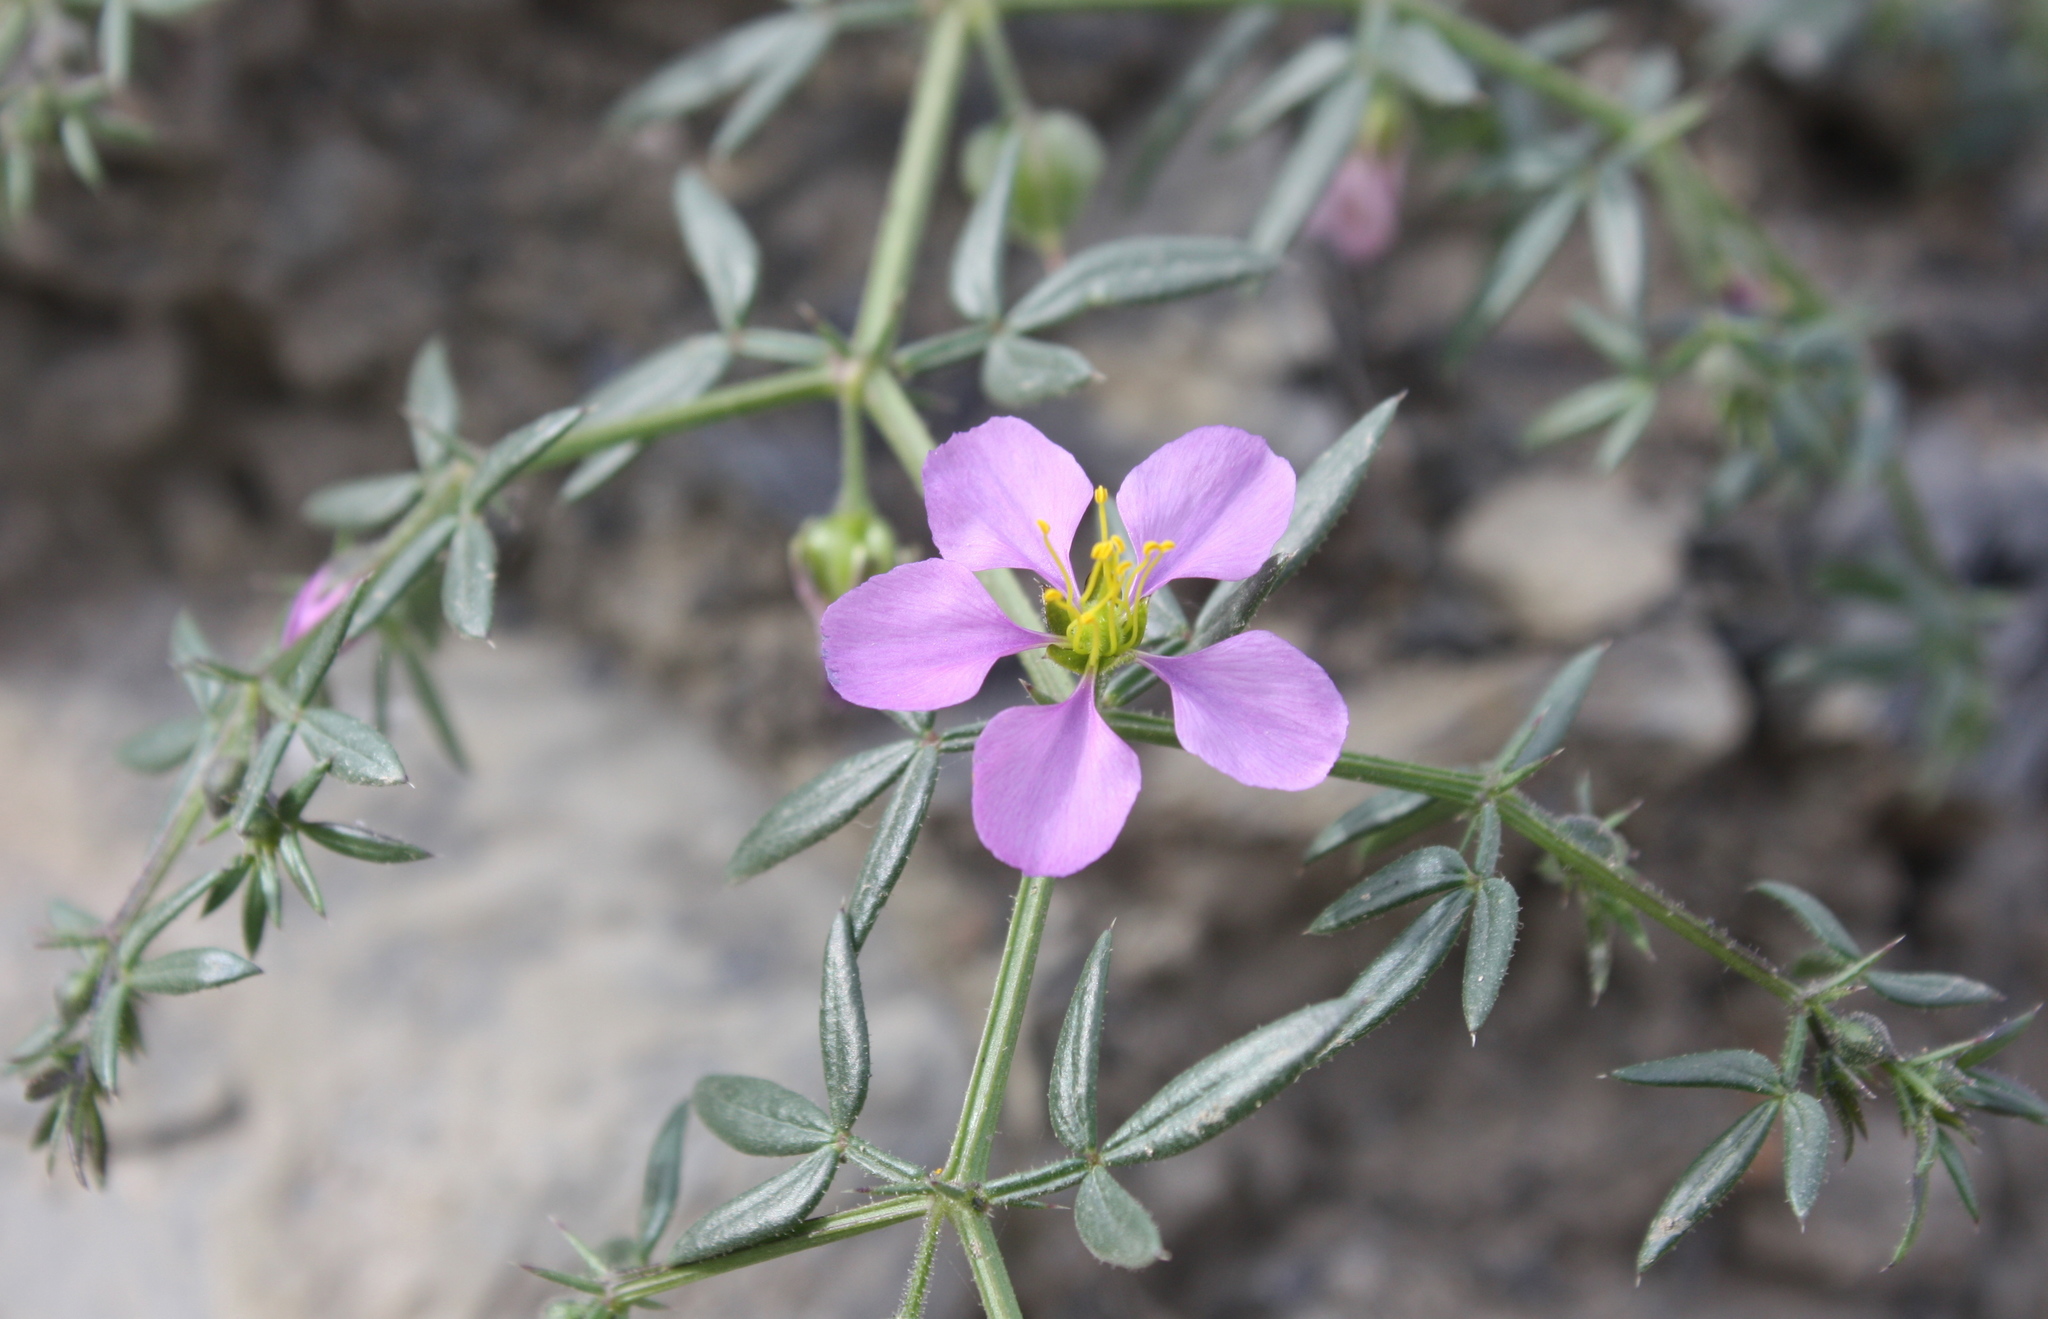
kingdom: Plantae
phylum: Tracheophyta
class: Magnoliopsida
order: Zygophyllales
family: Zygophyllaceae
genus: Fagonia
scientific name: Fagonia cretica
